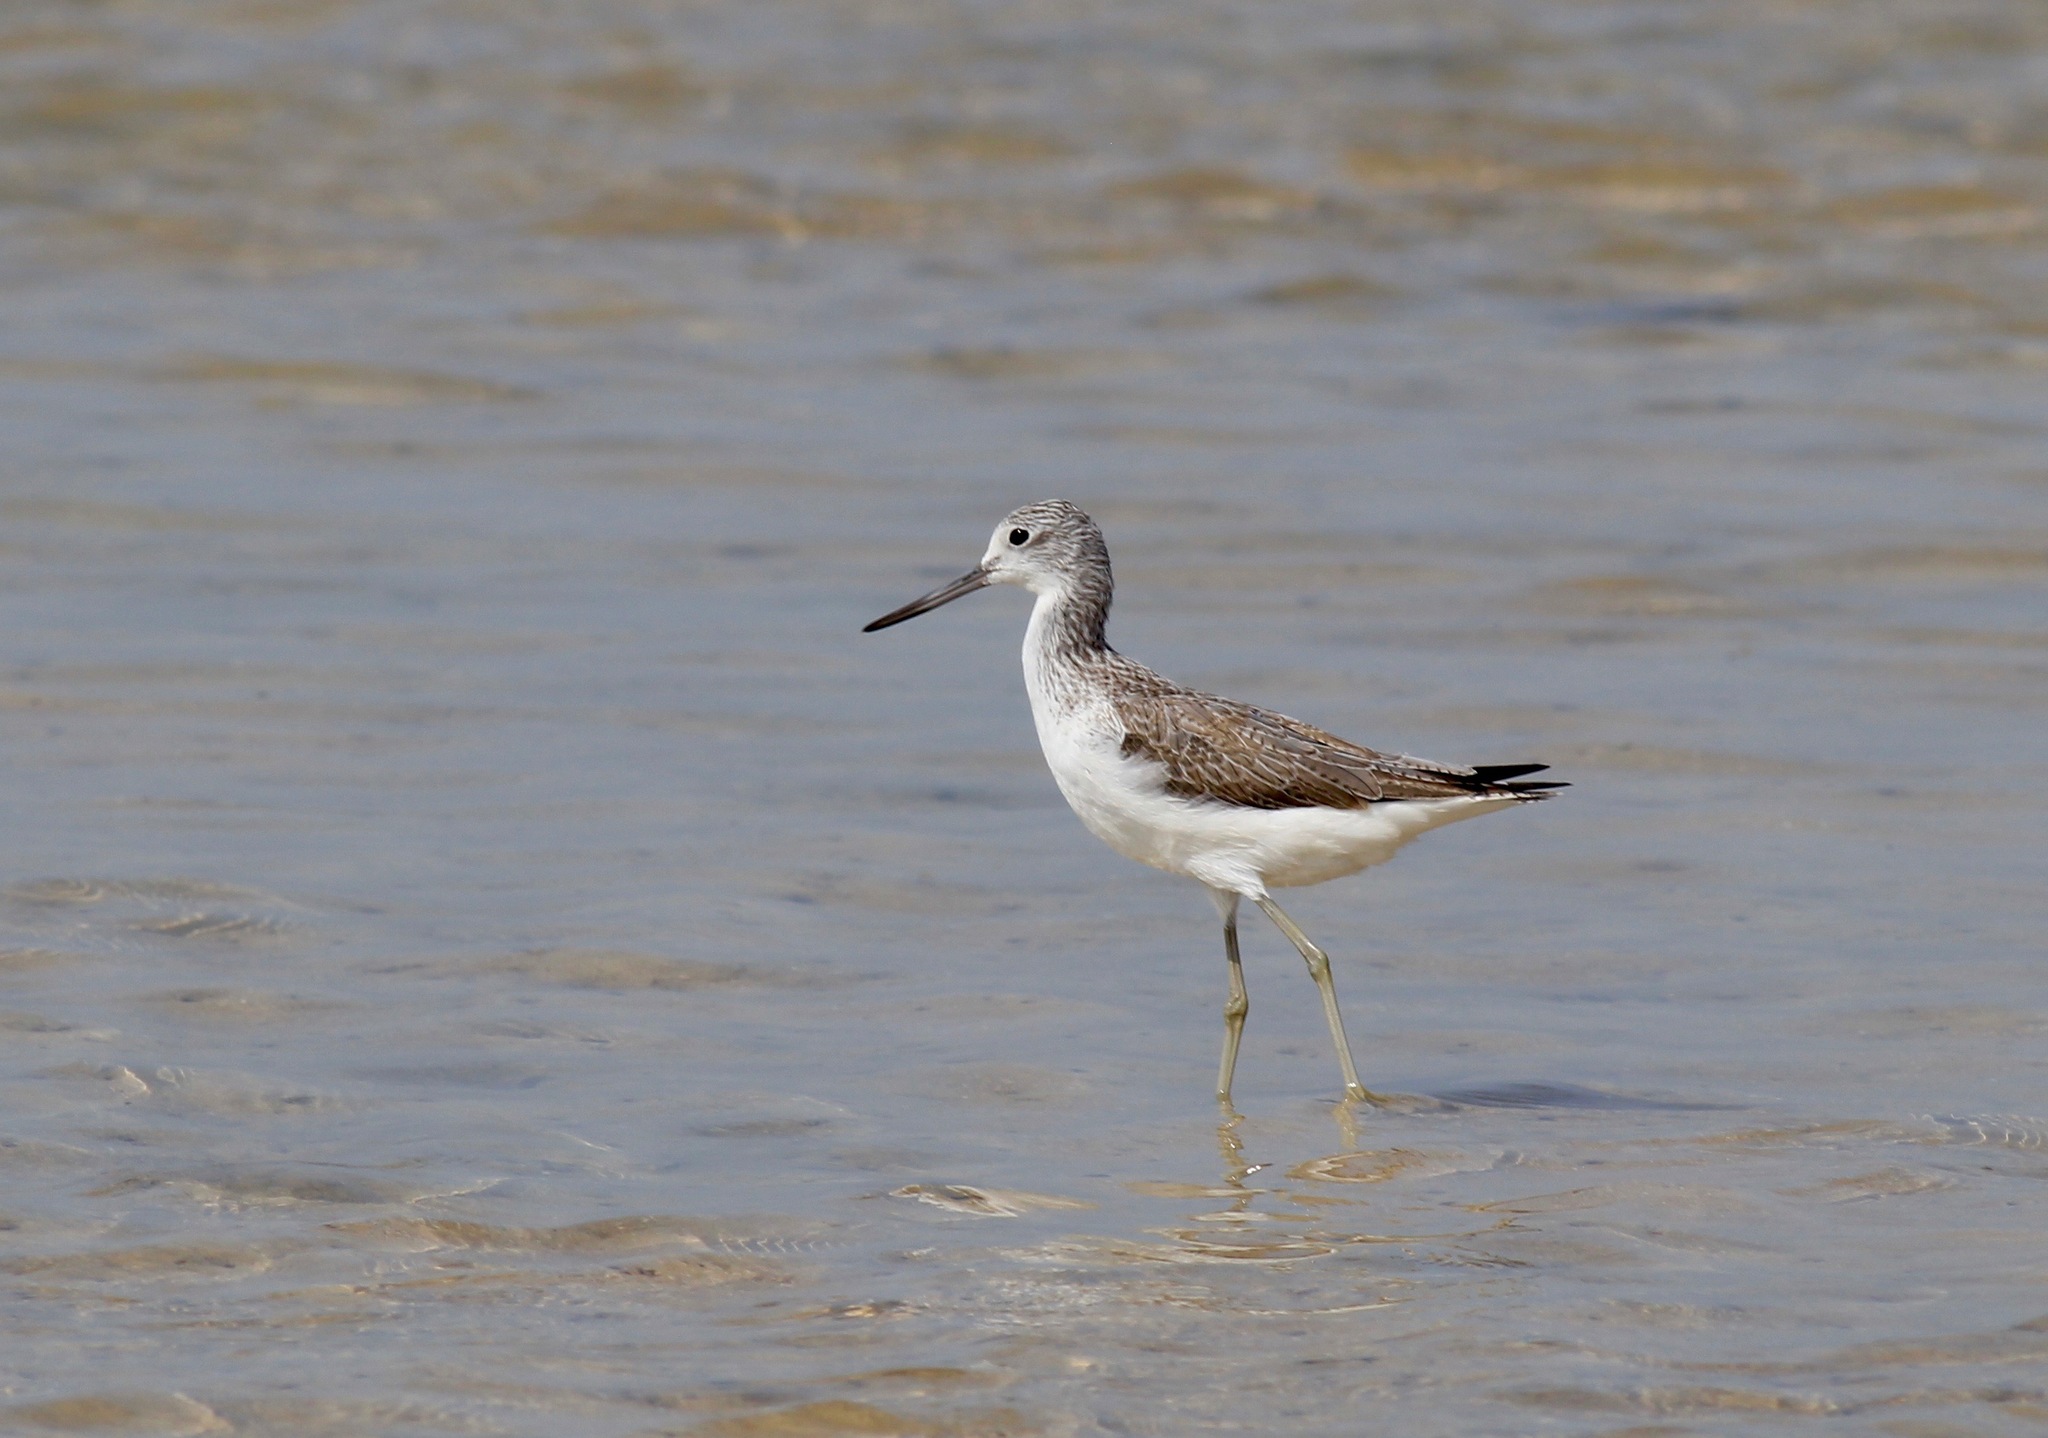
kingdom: Animalia
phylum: Chordata
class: Aves
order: Charadriiformes
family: Scolopacidae
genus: Tringa
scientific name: Tringa nebularia
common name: Common greenshank
